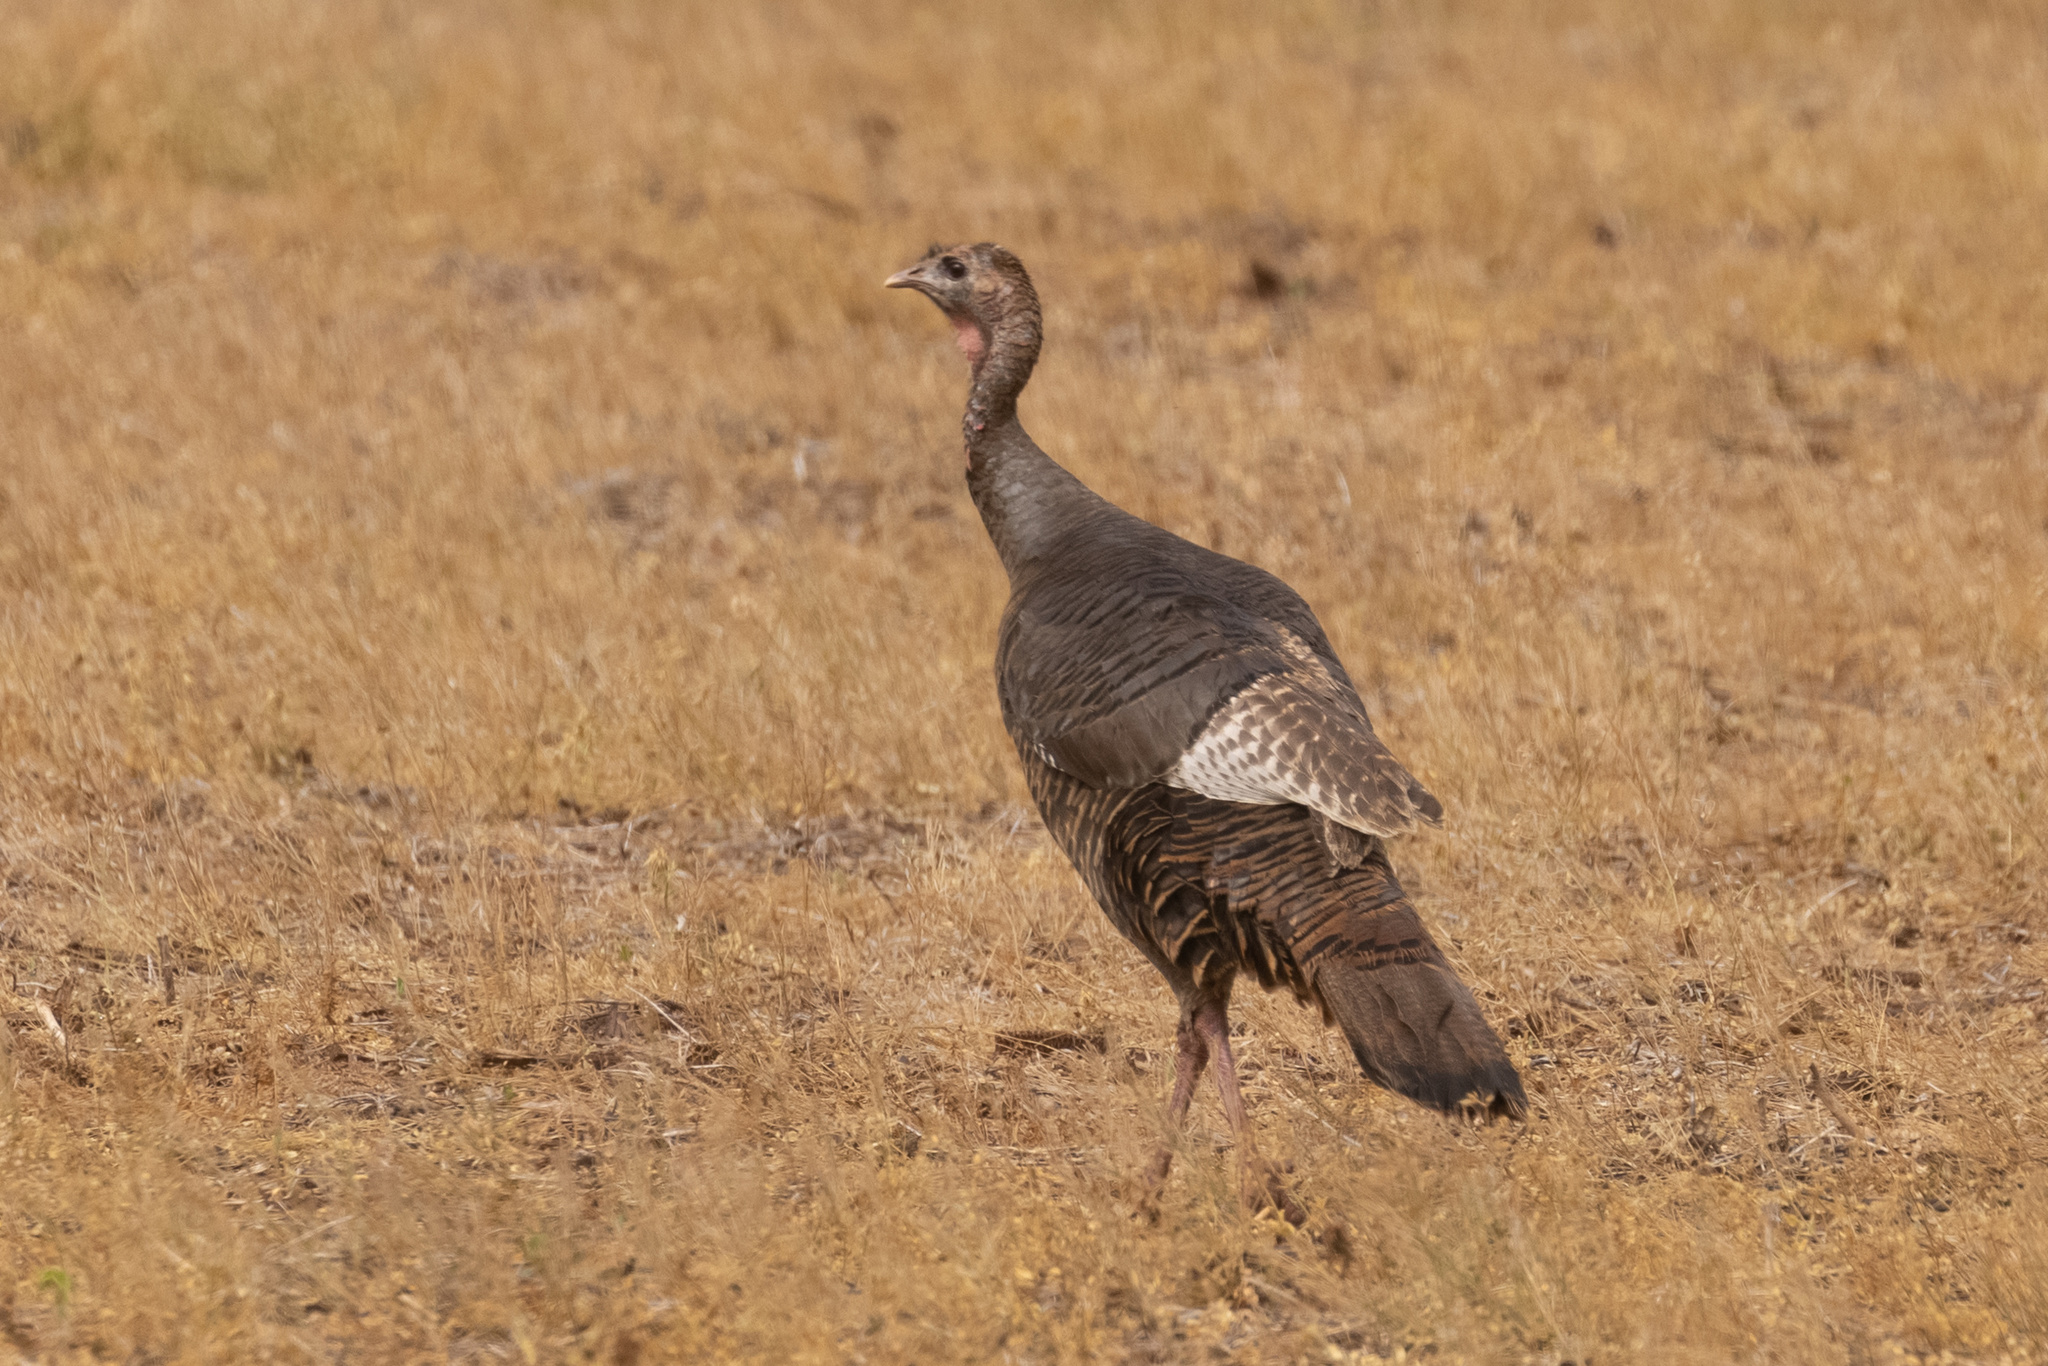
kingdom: Animalia
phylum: Chordata
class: Aves
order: Galliformes
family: Phasianidae
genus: Meleagris
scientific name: Meleagris gallopavo
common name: Wild turkey
